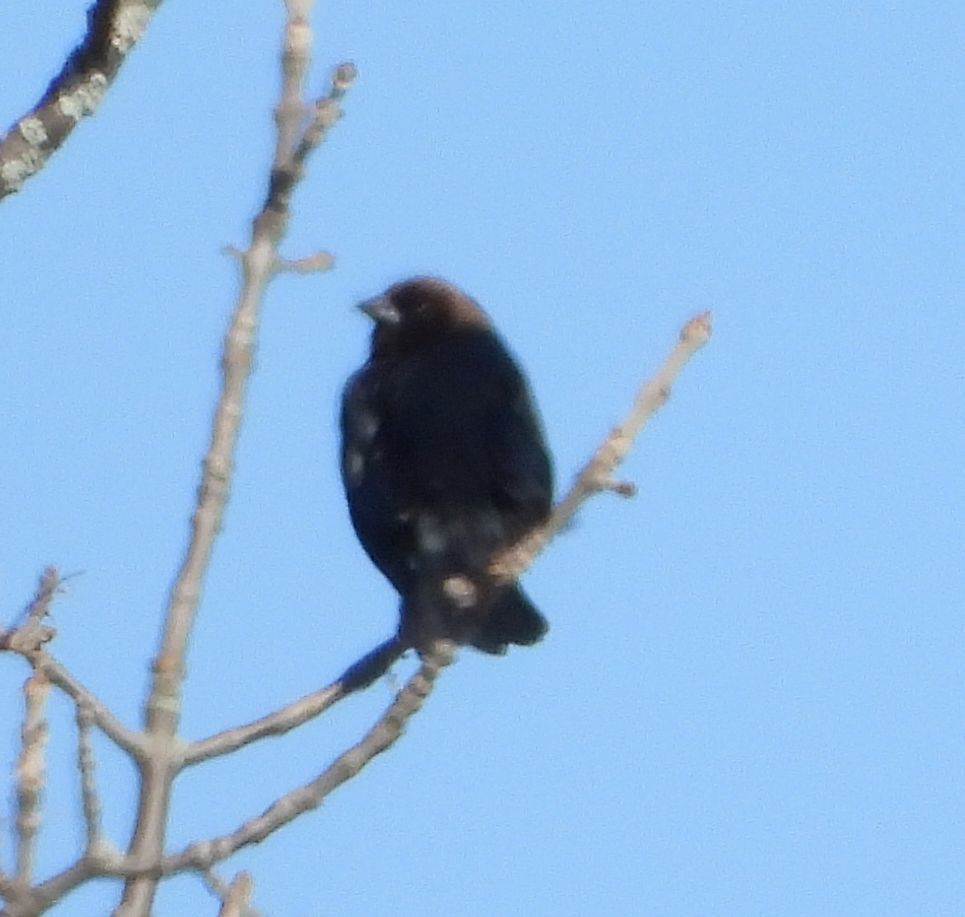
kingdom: Animalia
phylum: Chordata
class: Aves
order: Passeriformes
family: Icteridae
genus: Molothrus
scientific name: Molothrus ater
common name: Brown-headed cowbird
